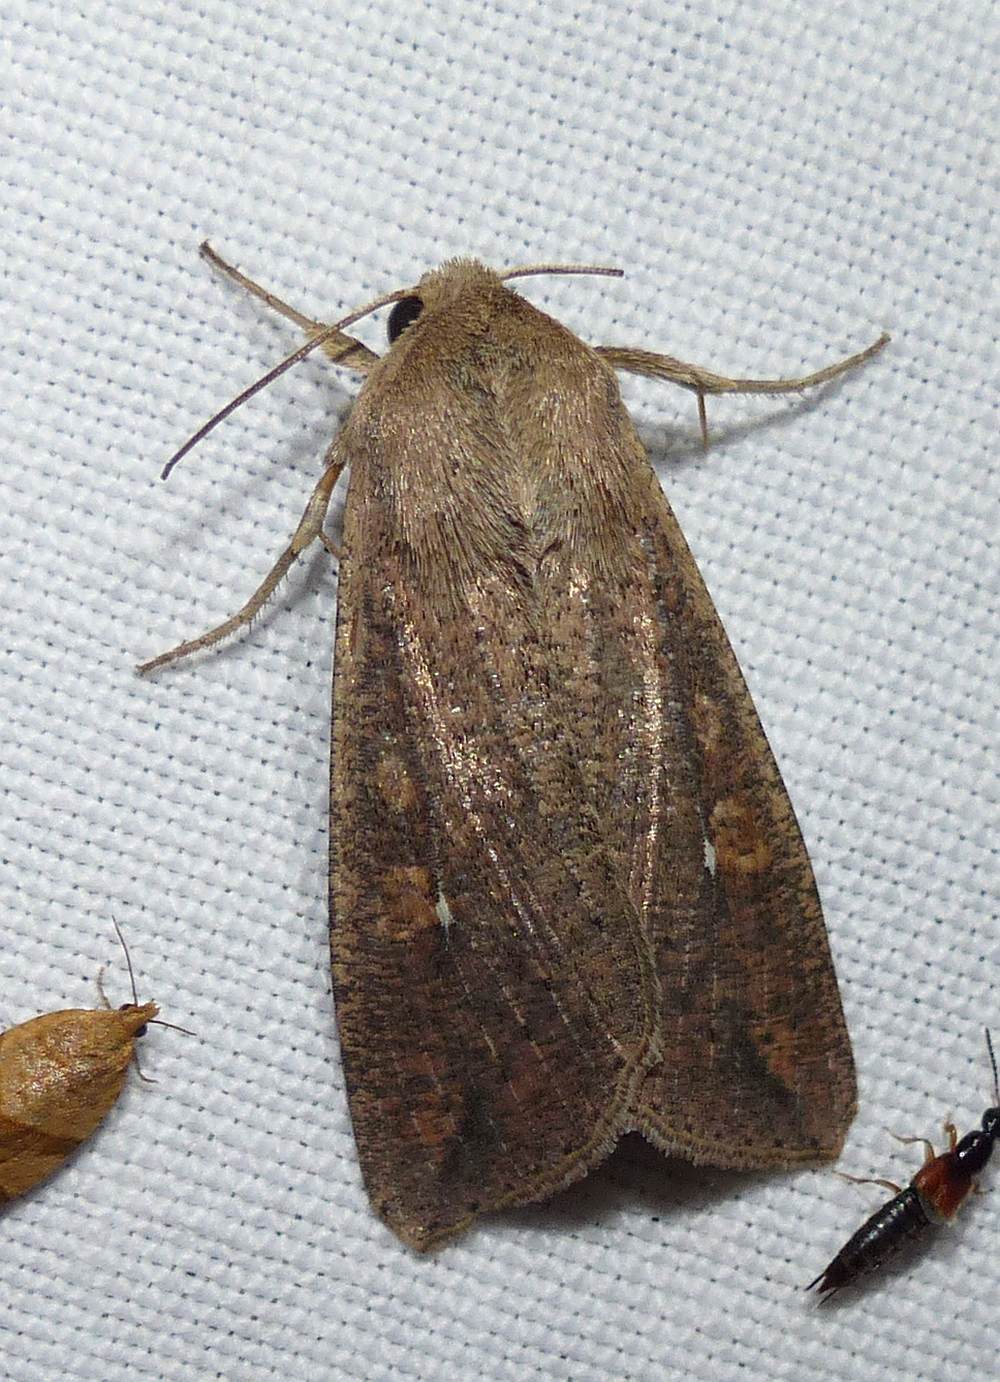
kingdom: Animalia
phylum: Arthropoda
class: Insecta
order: Lepidoptera
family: Noctuidae
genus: Mythimna
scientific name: Mythimna unipuncta
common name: White-speck
